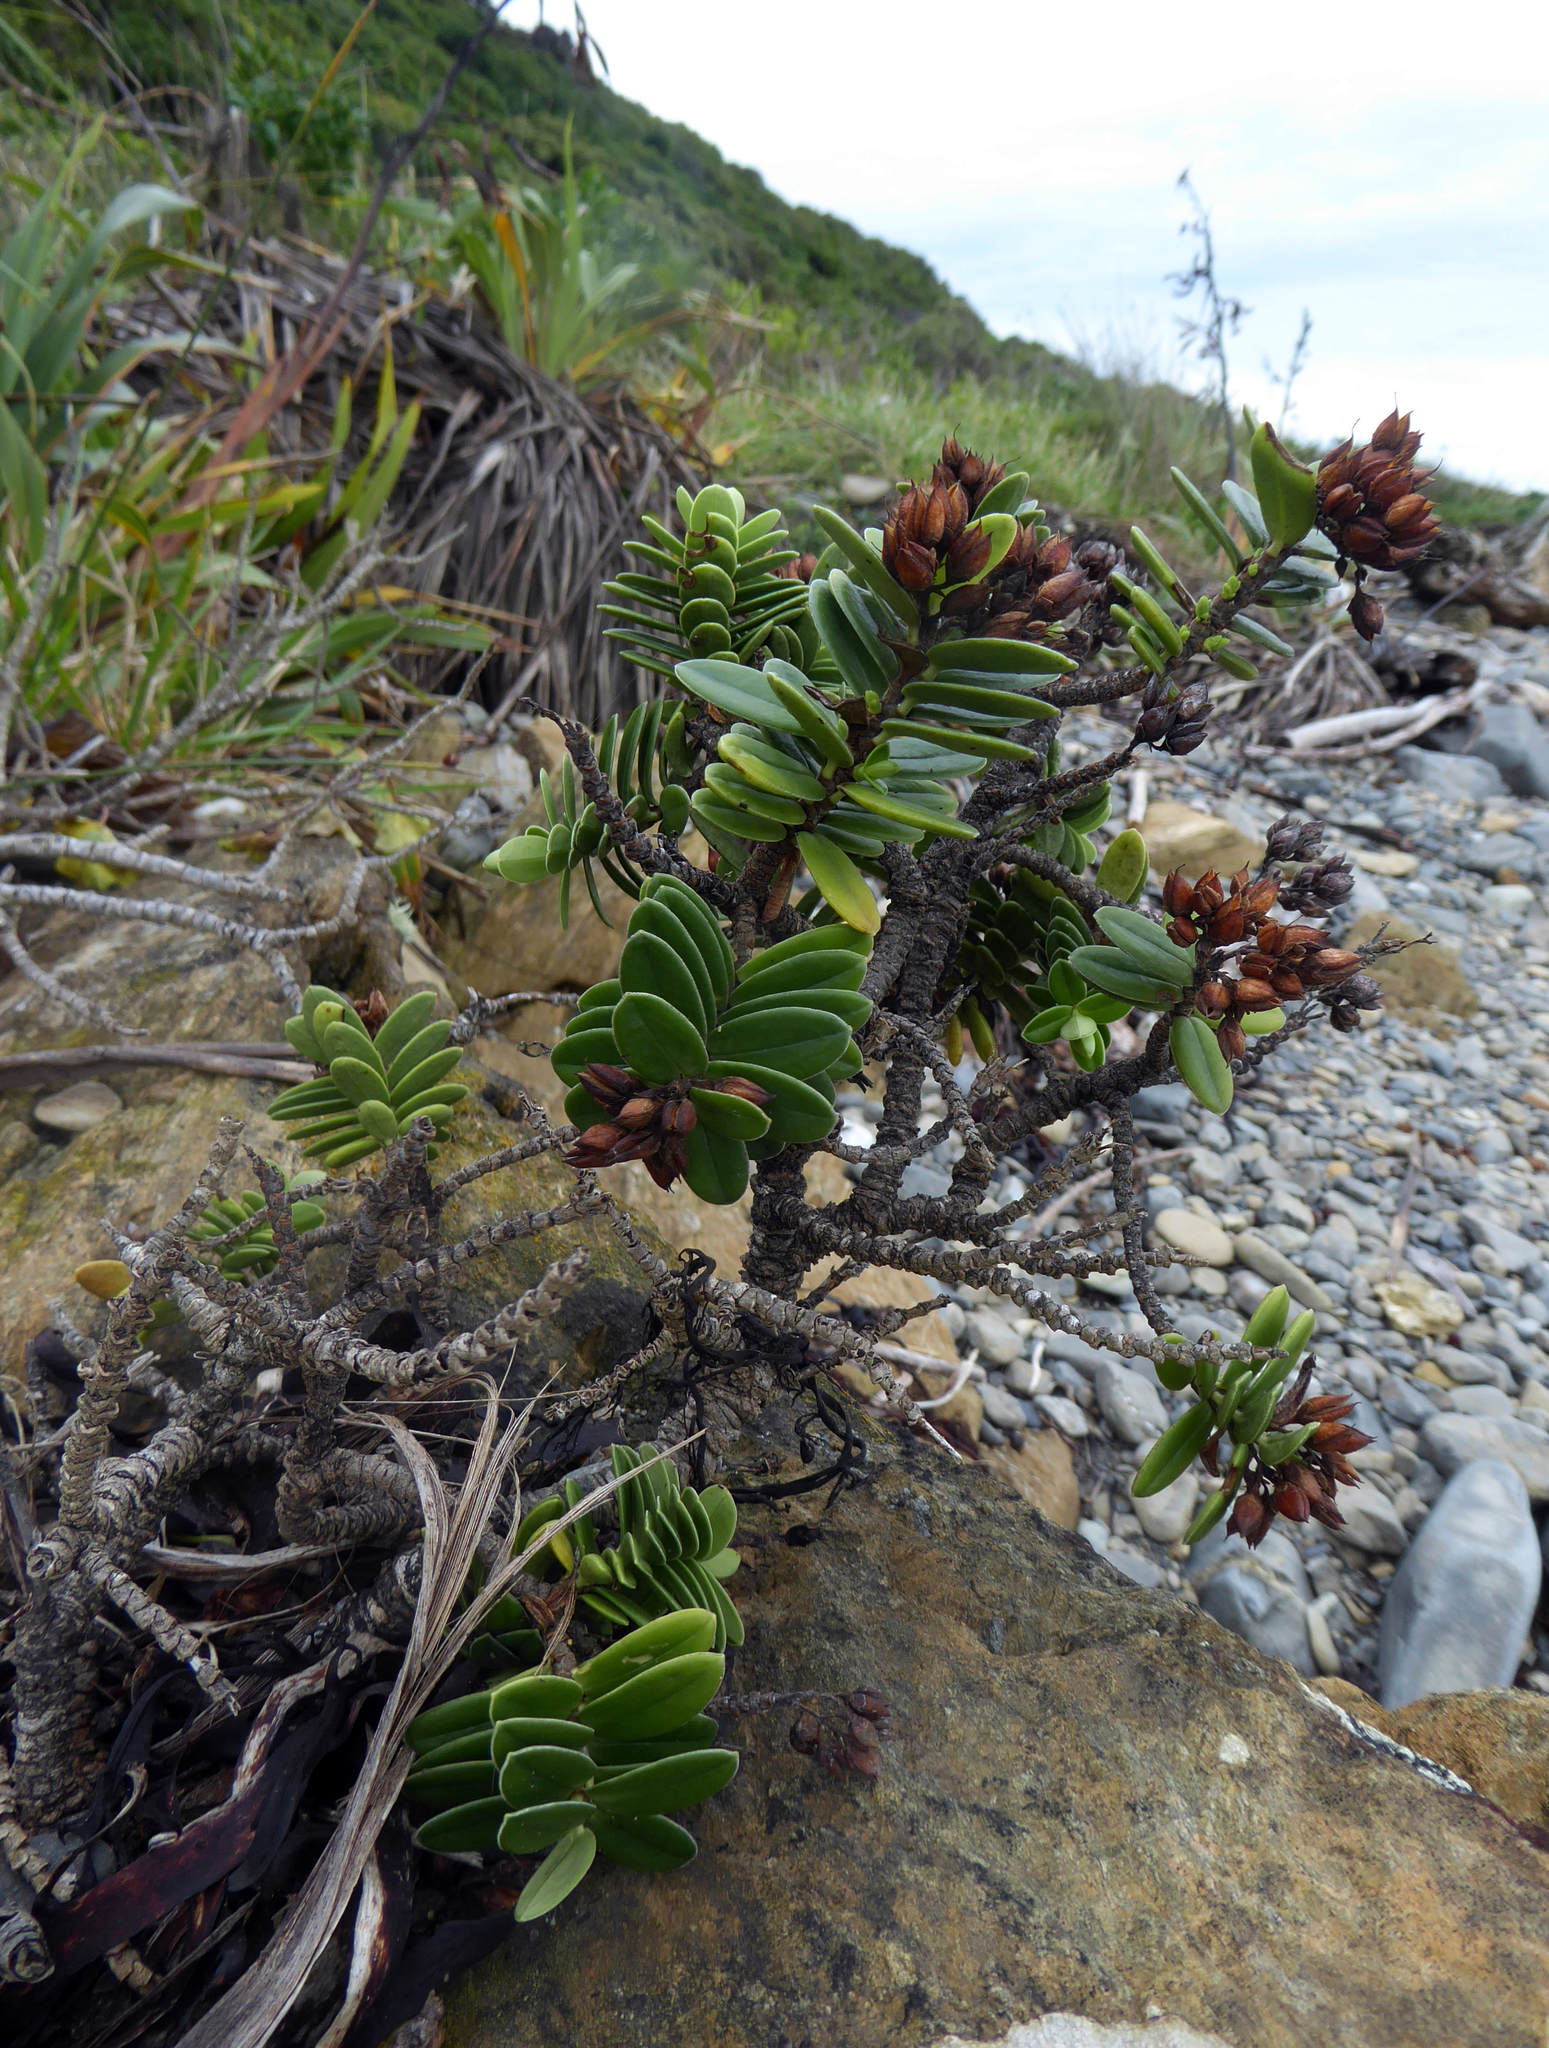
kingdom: Plantae
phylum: Tracheophyta
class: Magnoliopsida
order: Lamiales
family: Plantaginaceae
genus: Veronica
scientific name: Veronica elliptica
